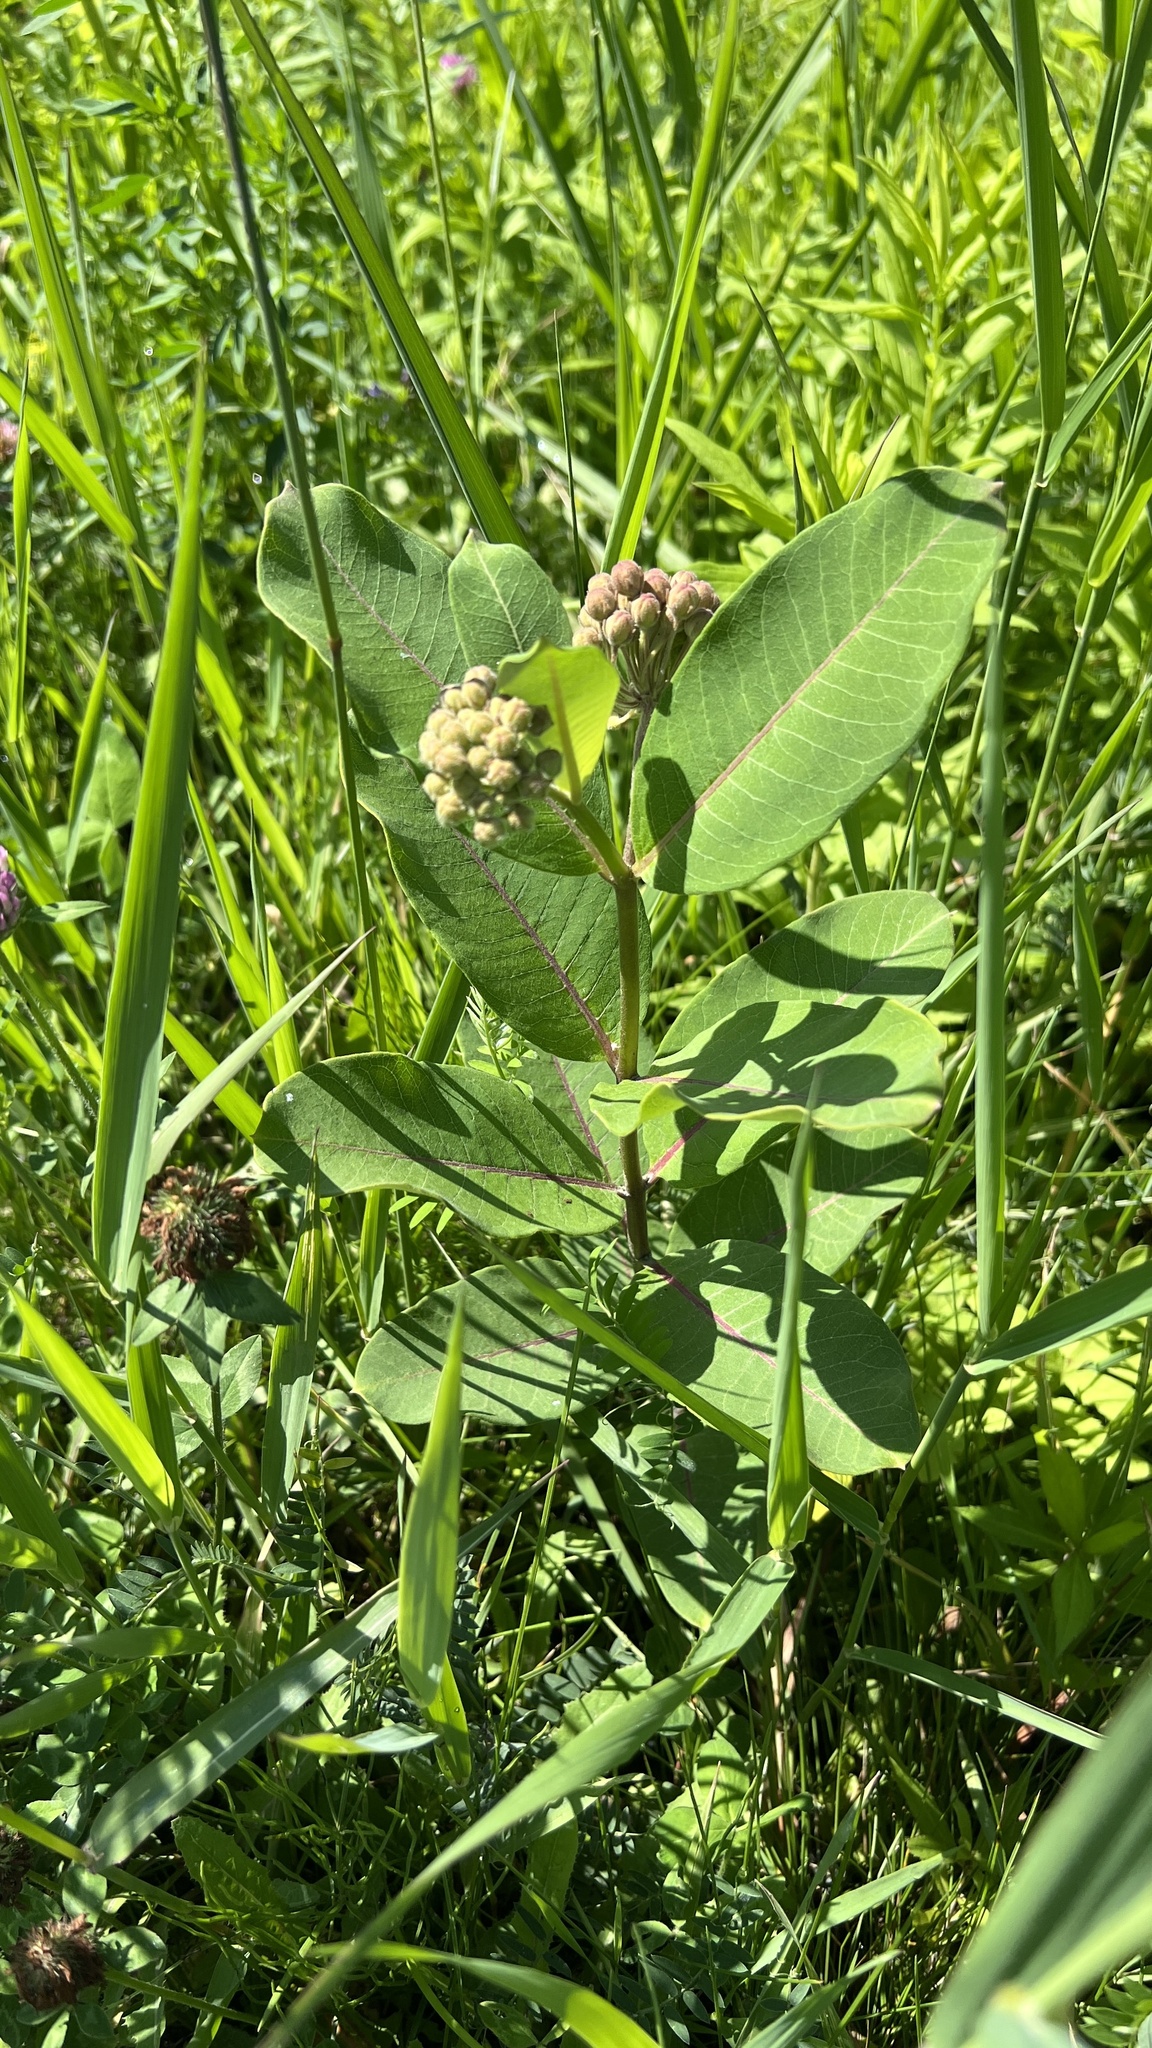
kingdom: Plantae
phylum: Tracheophyta
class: Magnoliopsida
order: Gentianales
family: Apocynaceae
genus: Asclepias
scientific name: Asclepias syriaca
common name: Common milkweed
